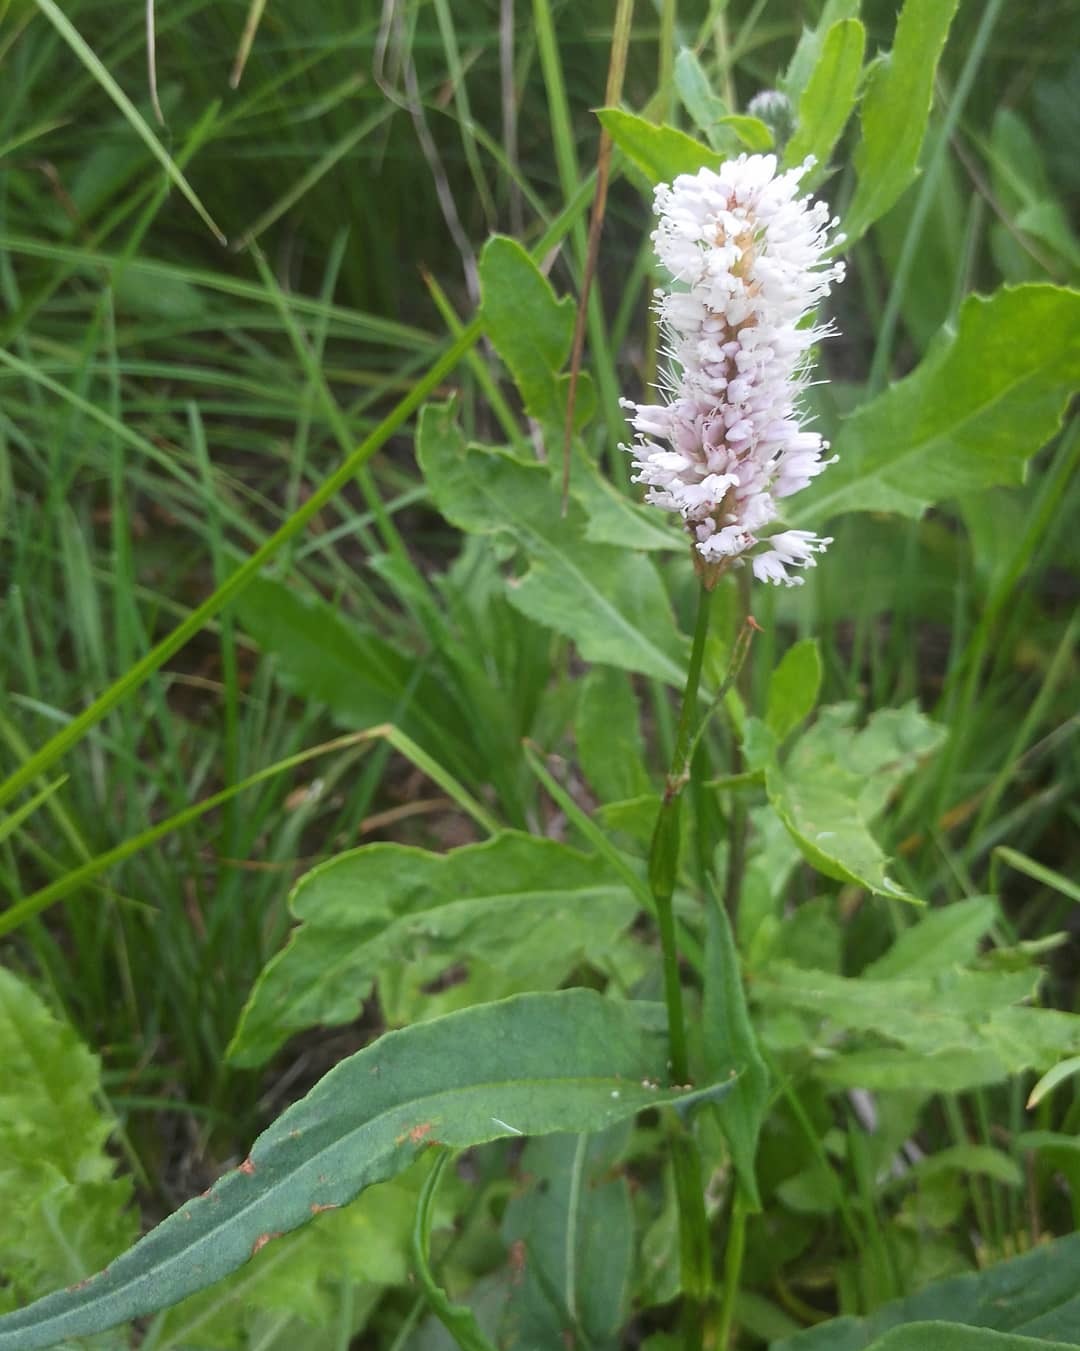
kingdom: Plantae
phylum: Tracheophyta
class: Magnoliopsida
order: Caryophyllales
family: Polygonaceae
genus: Bistorta
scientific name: Bistorta officinalis
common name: Common bistort
